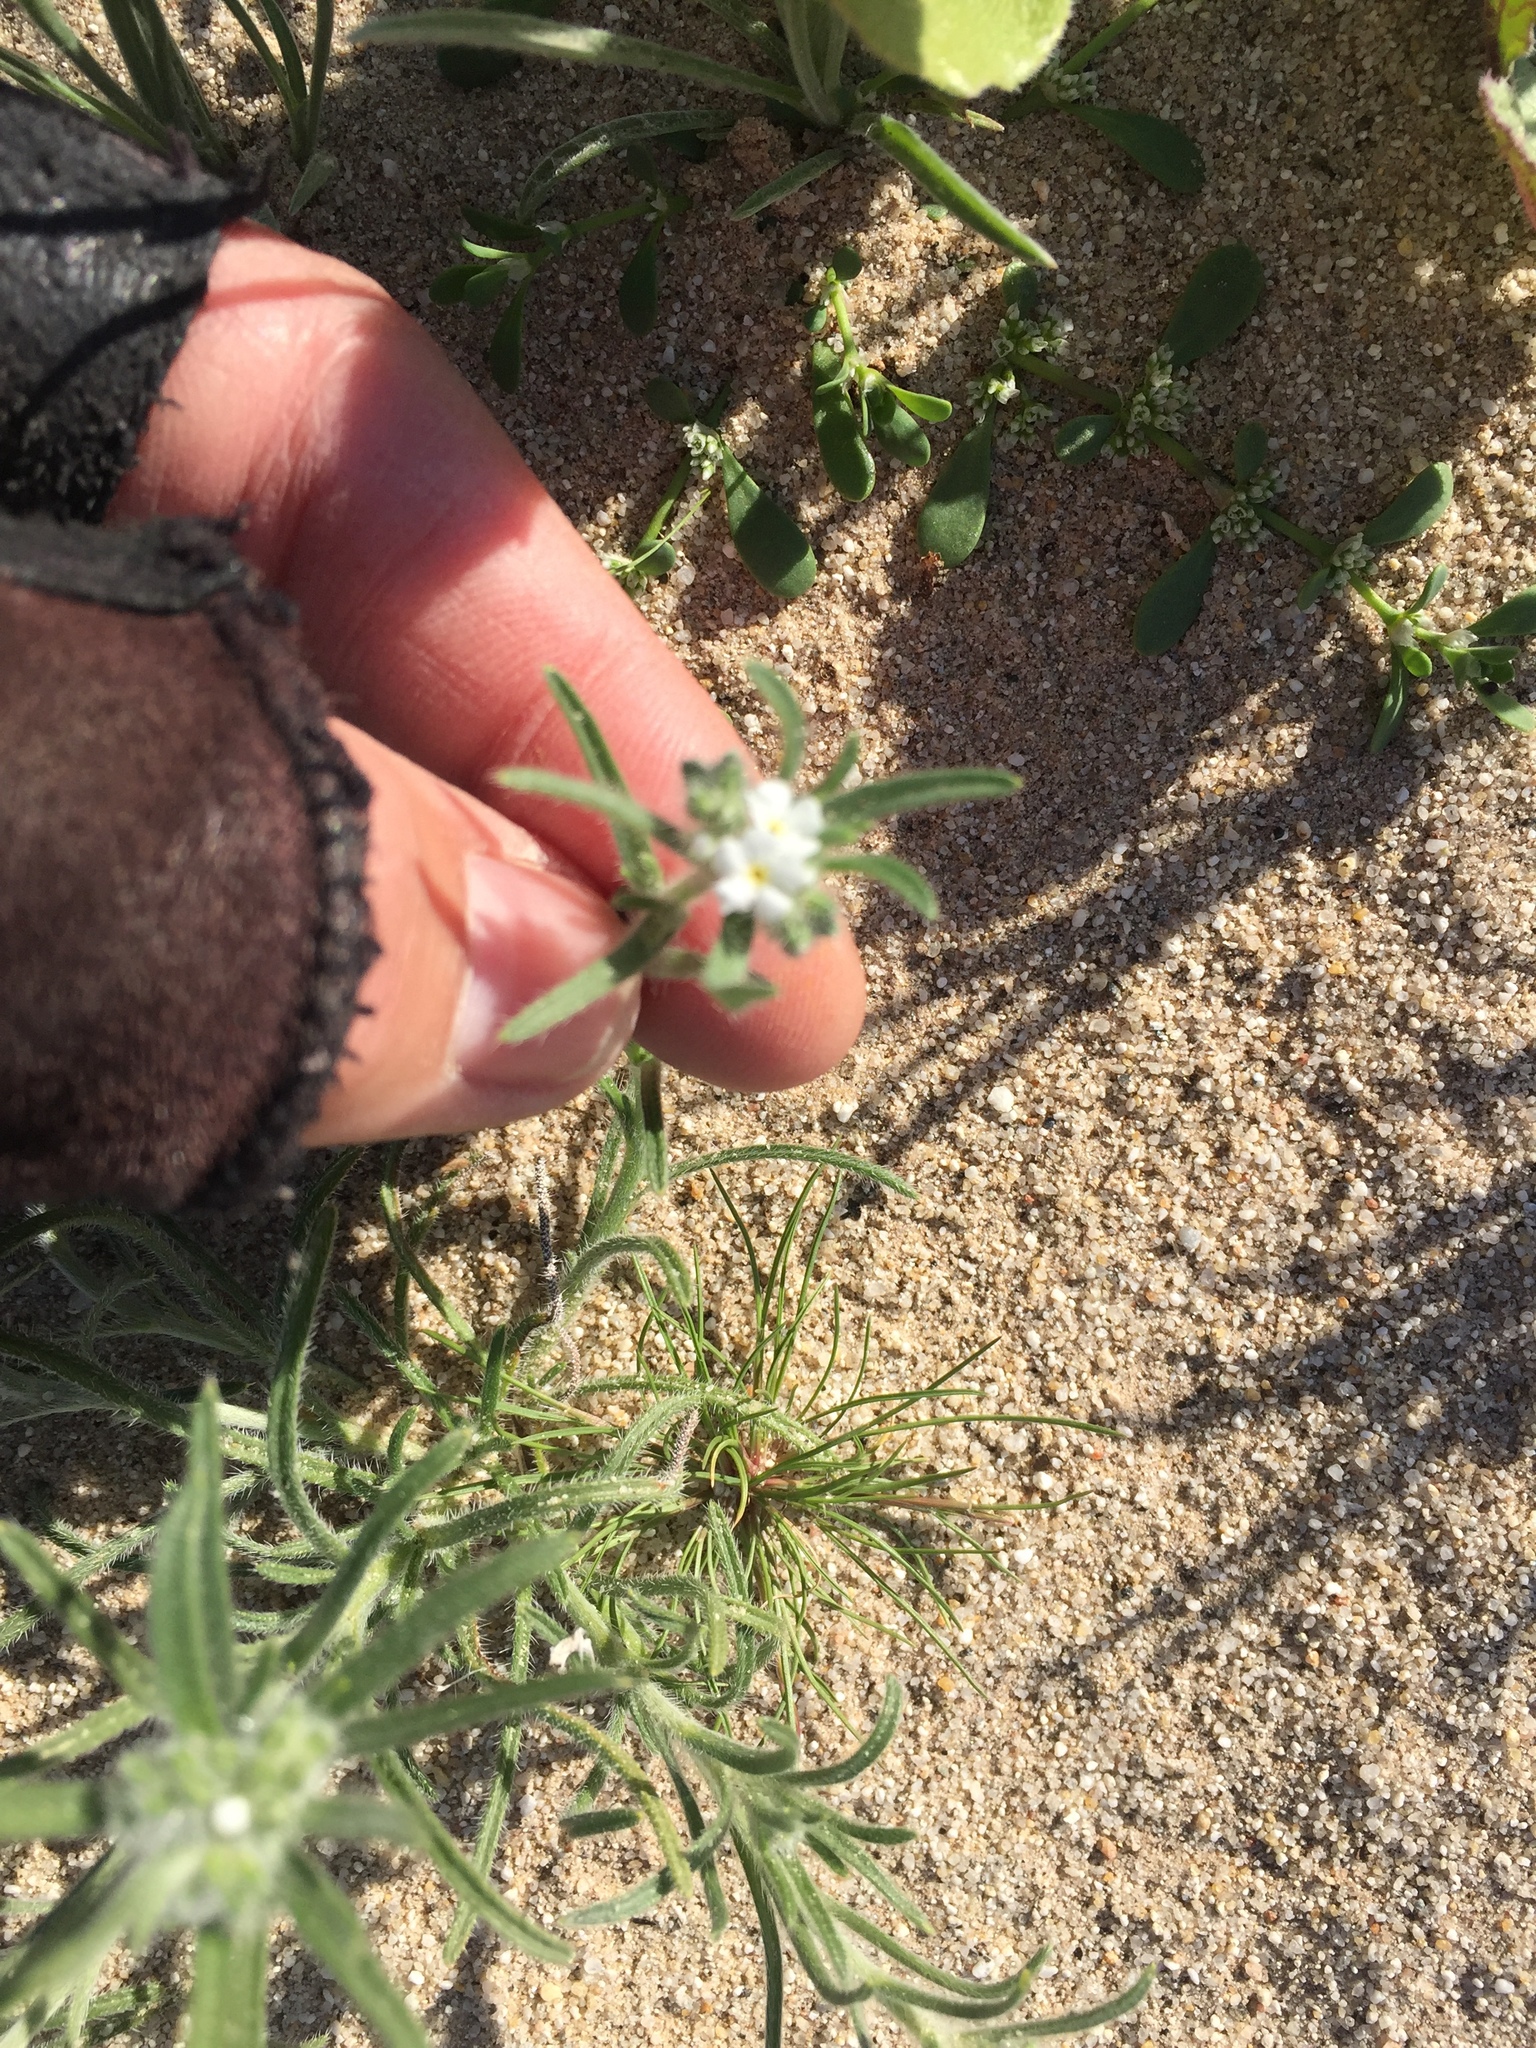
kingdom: Plantae
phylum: Tracheophyta
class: Magnoliopsida
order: Boraginales
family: Boraginaceae
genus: Johnstonella
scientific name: Johnstonella angustifolia
